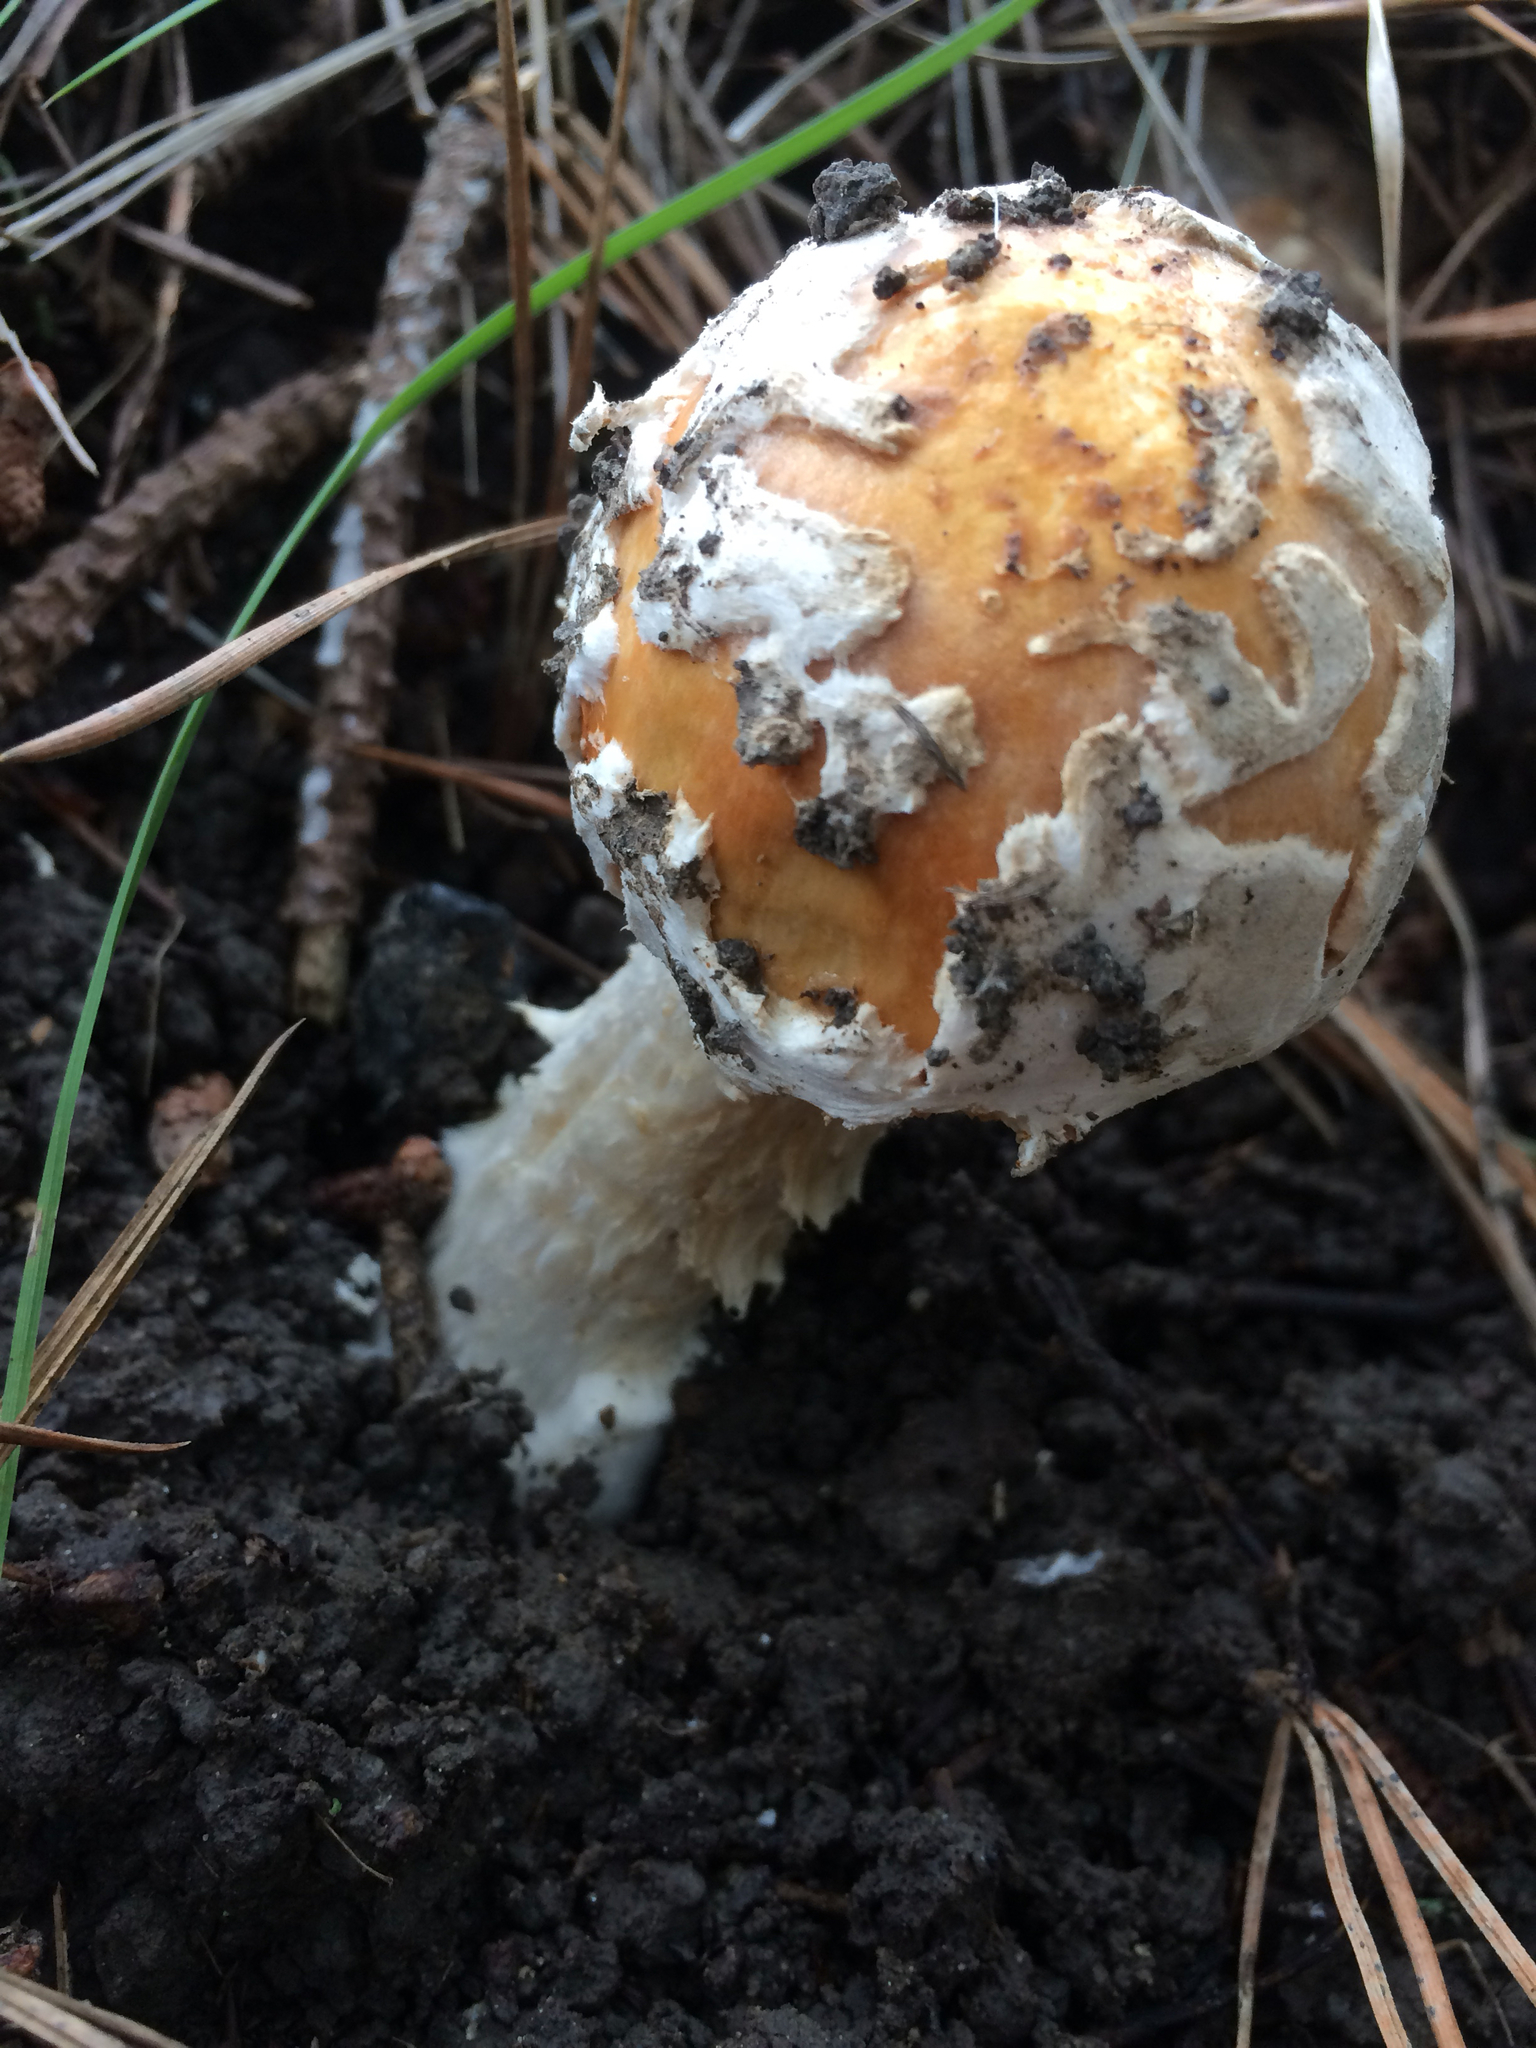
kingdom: Fungi
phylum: Basidiomycota
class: Agaricomycetes
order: Agaricales
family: Amanitaceae
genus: Amanita
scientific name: Amanita muscaria
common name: Fly agaric
